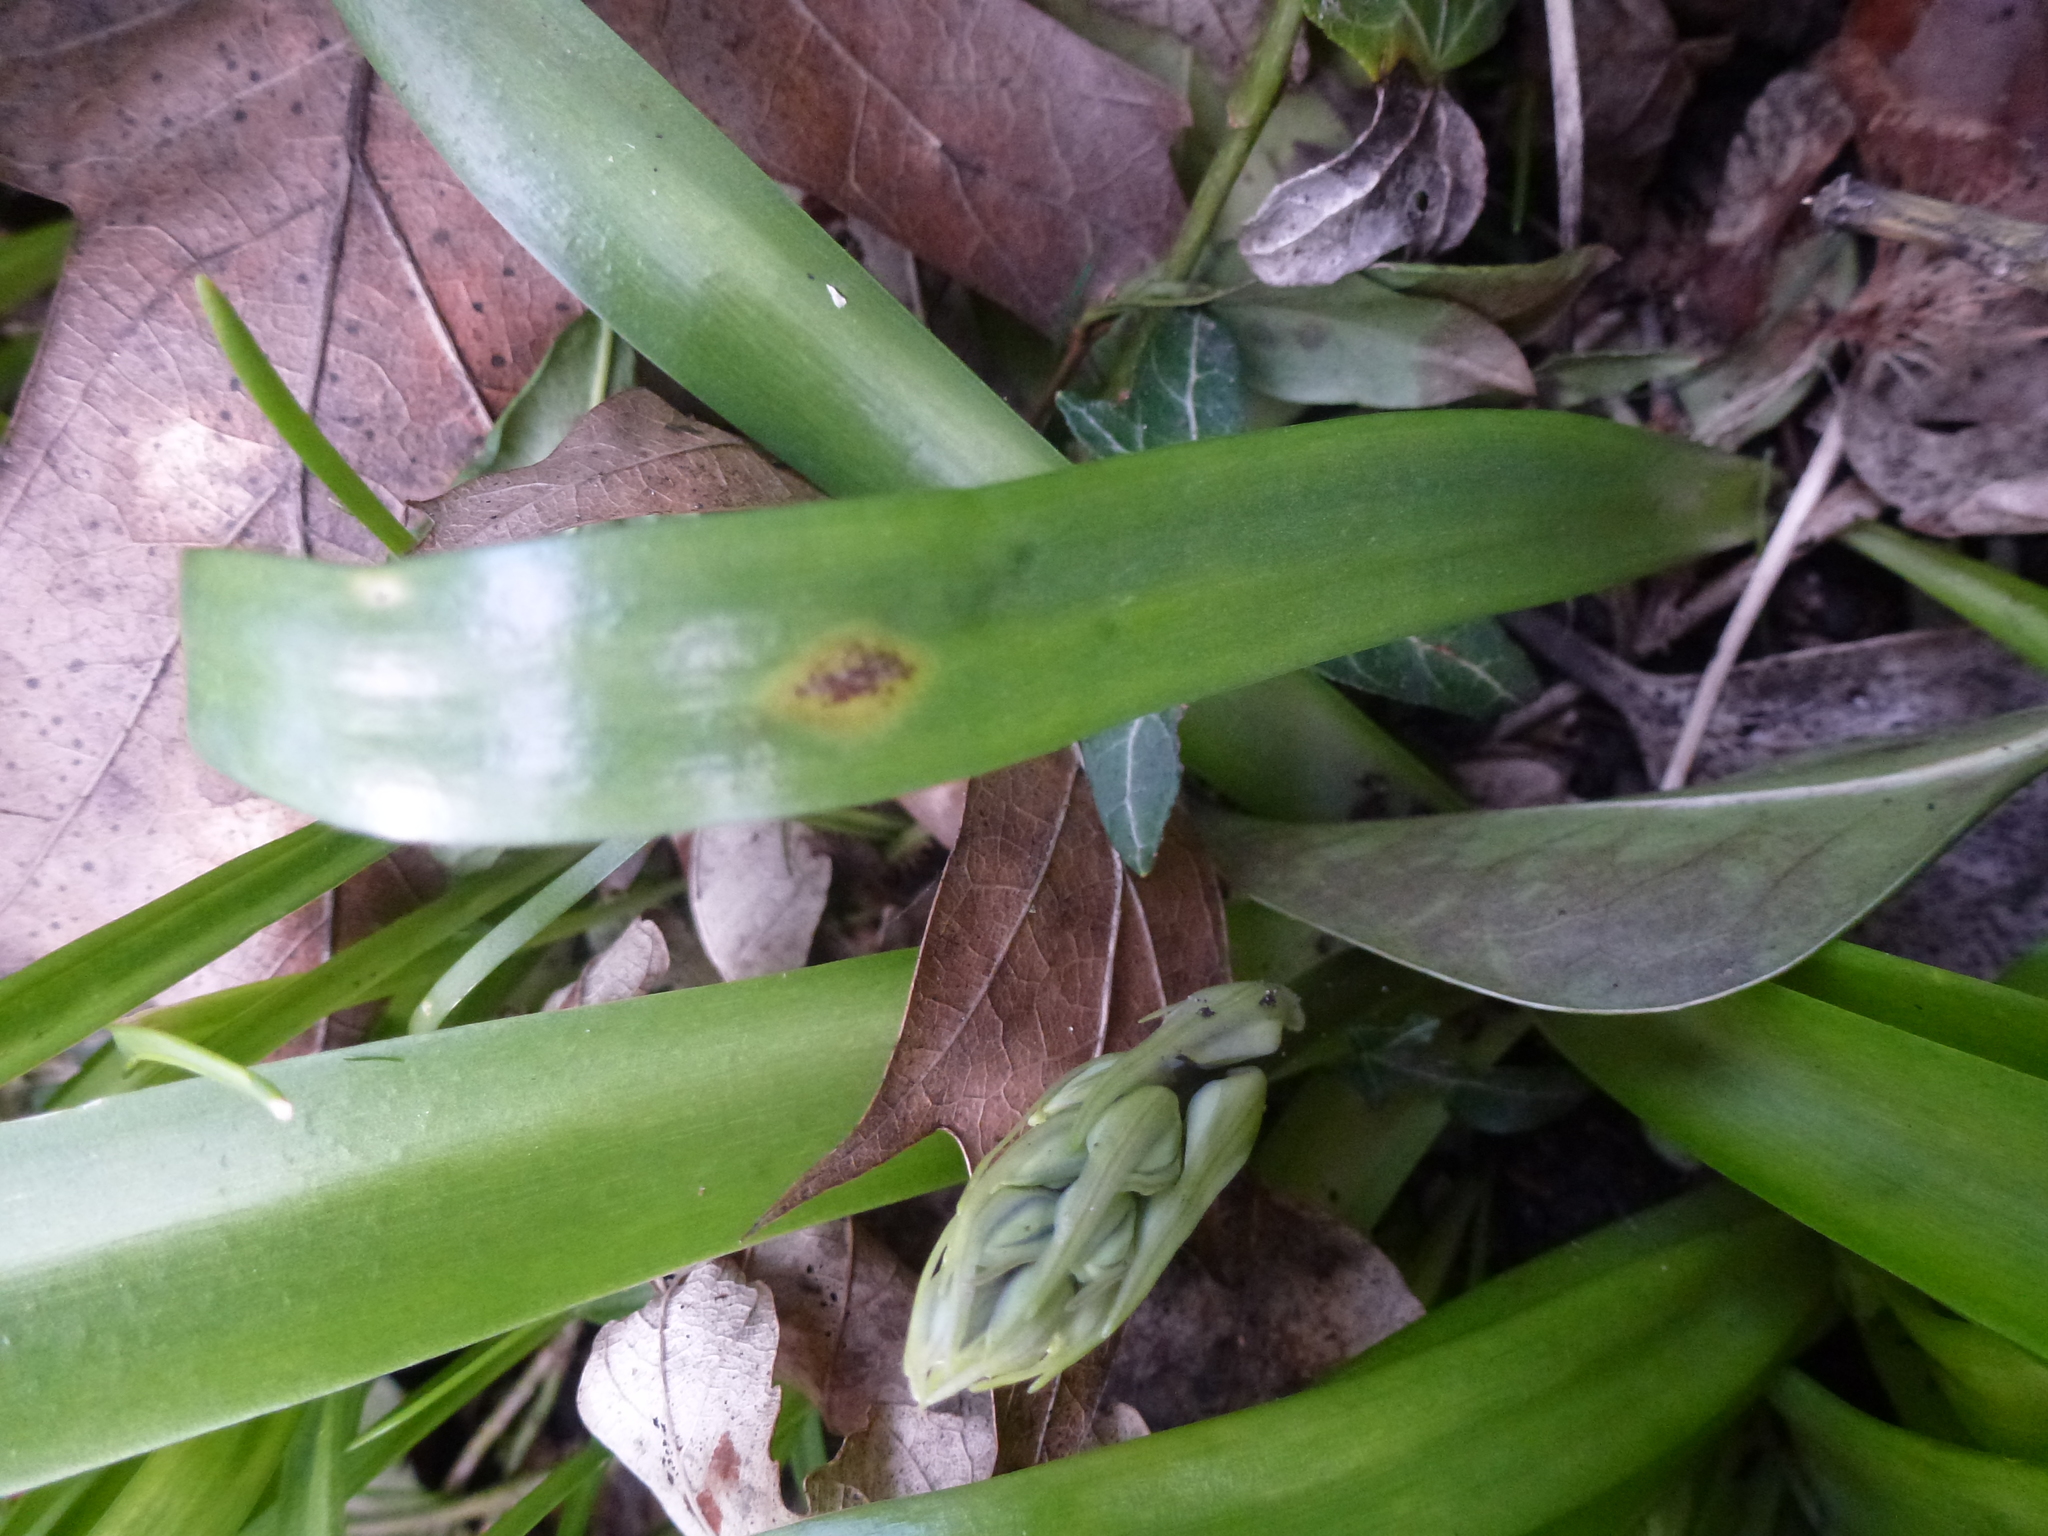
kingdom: Fungi
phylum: Basidiomycota
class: Pucciniomycetes
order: Pucciniales
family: Pucciniaceae
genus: Uromyces
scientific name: Uromyces hyacinthi
